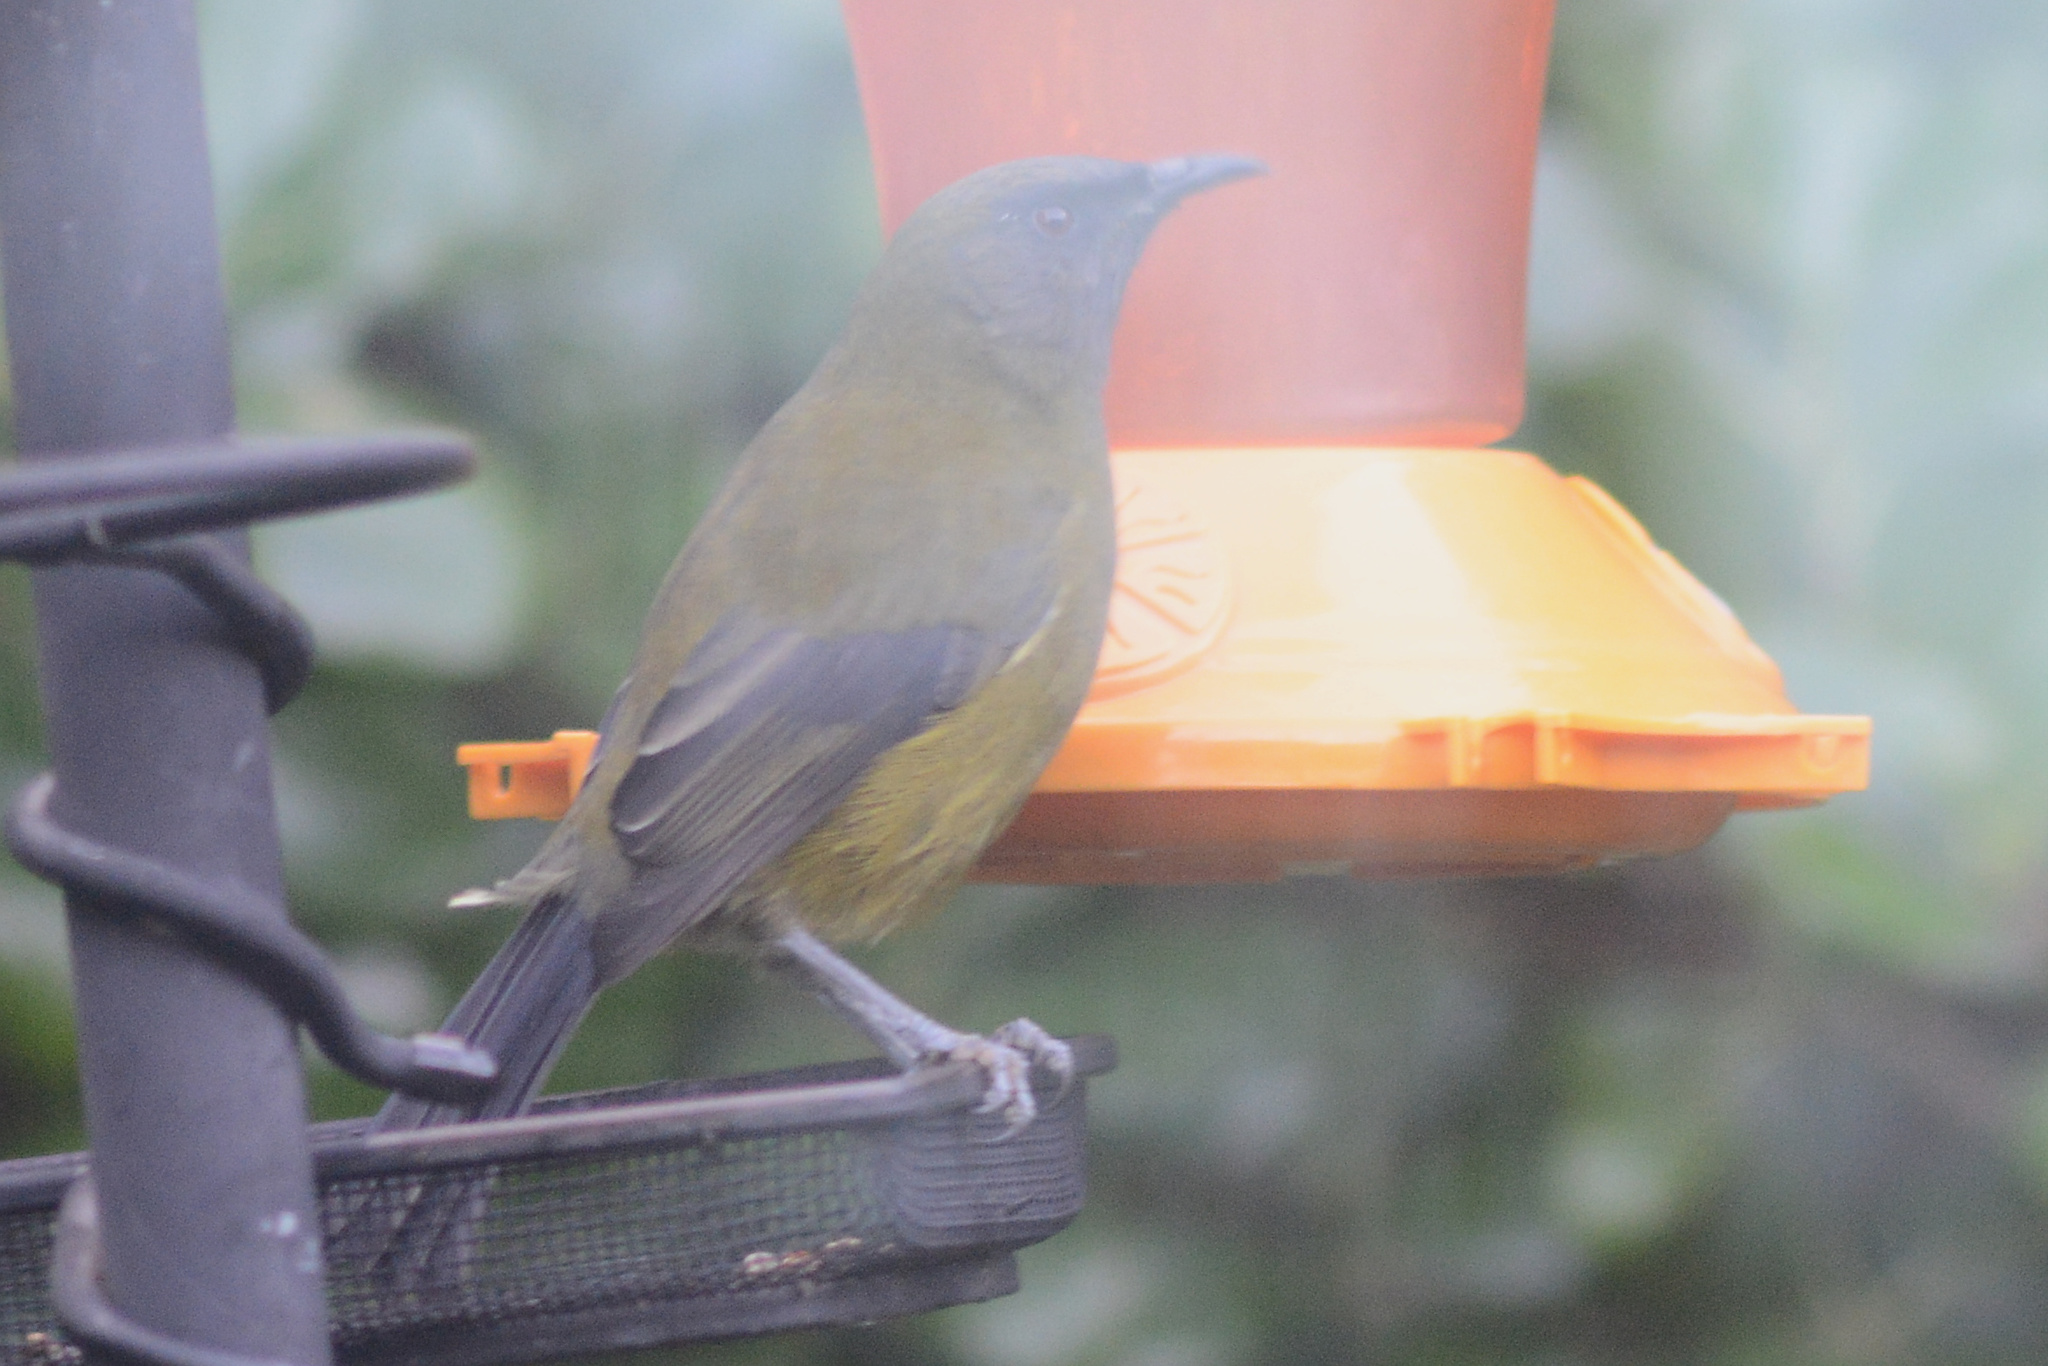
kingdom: Animalia
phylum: Chordata
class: Aves
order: Passeriformes
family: Meliphagidae
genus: Anthornis
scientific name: Anthornis melanura
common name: New zealand bellbird
